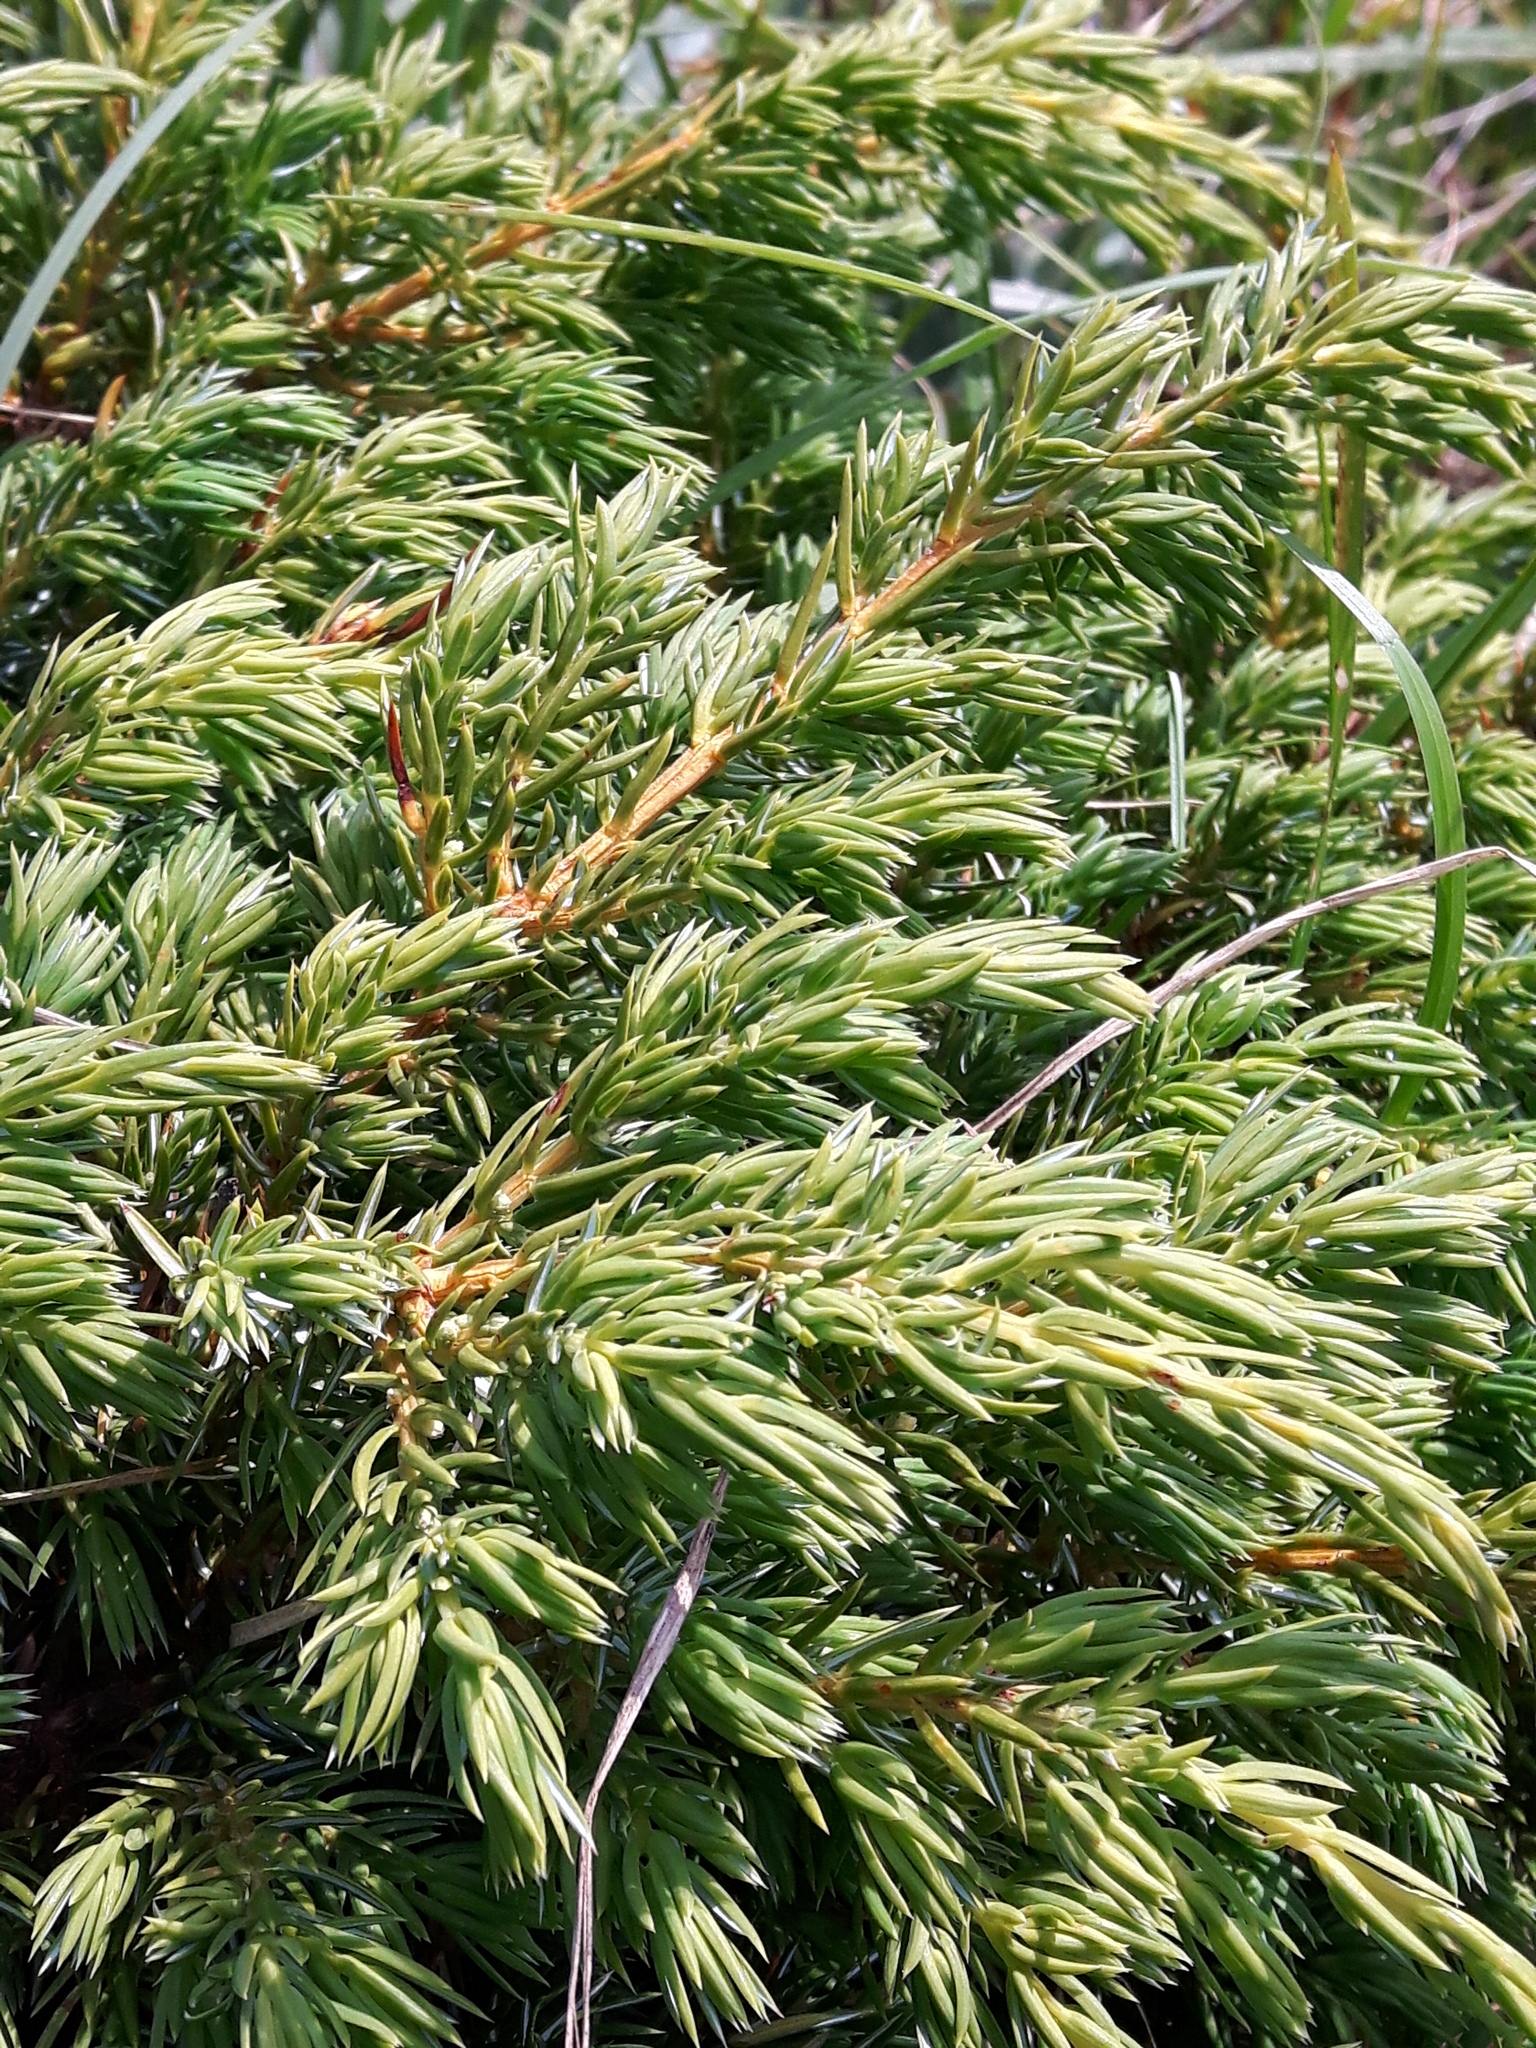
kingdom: Plantae
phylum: Tracheophyta
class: Pinopsida
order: Pinales
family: Cupressaceae
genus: Juniperus
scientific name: Juniperus communis
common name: Common juniper
